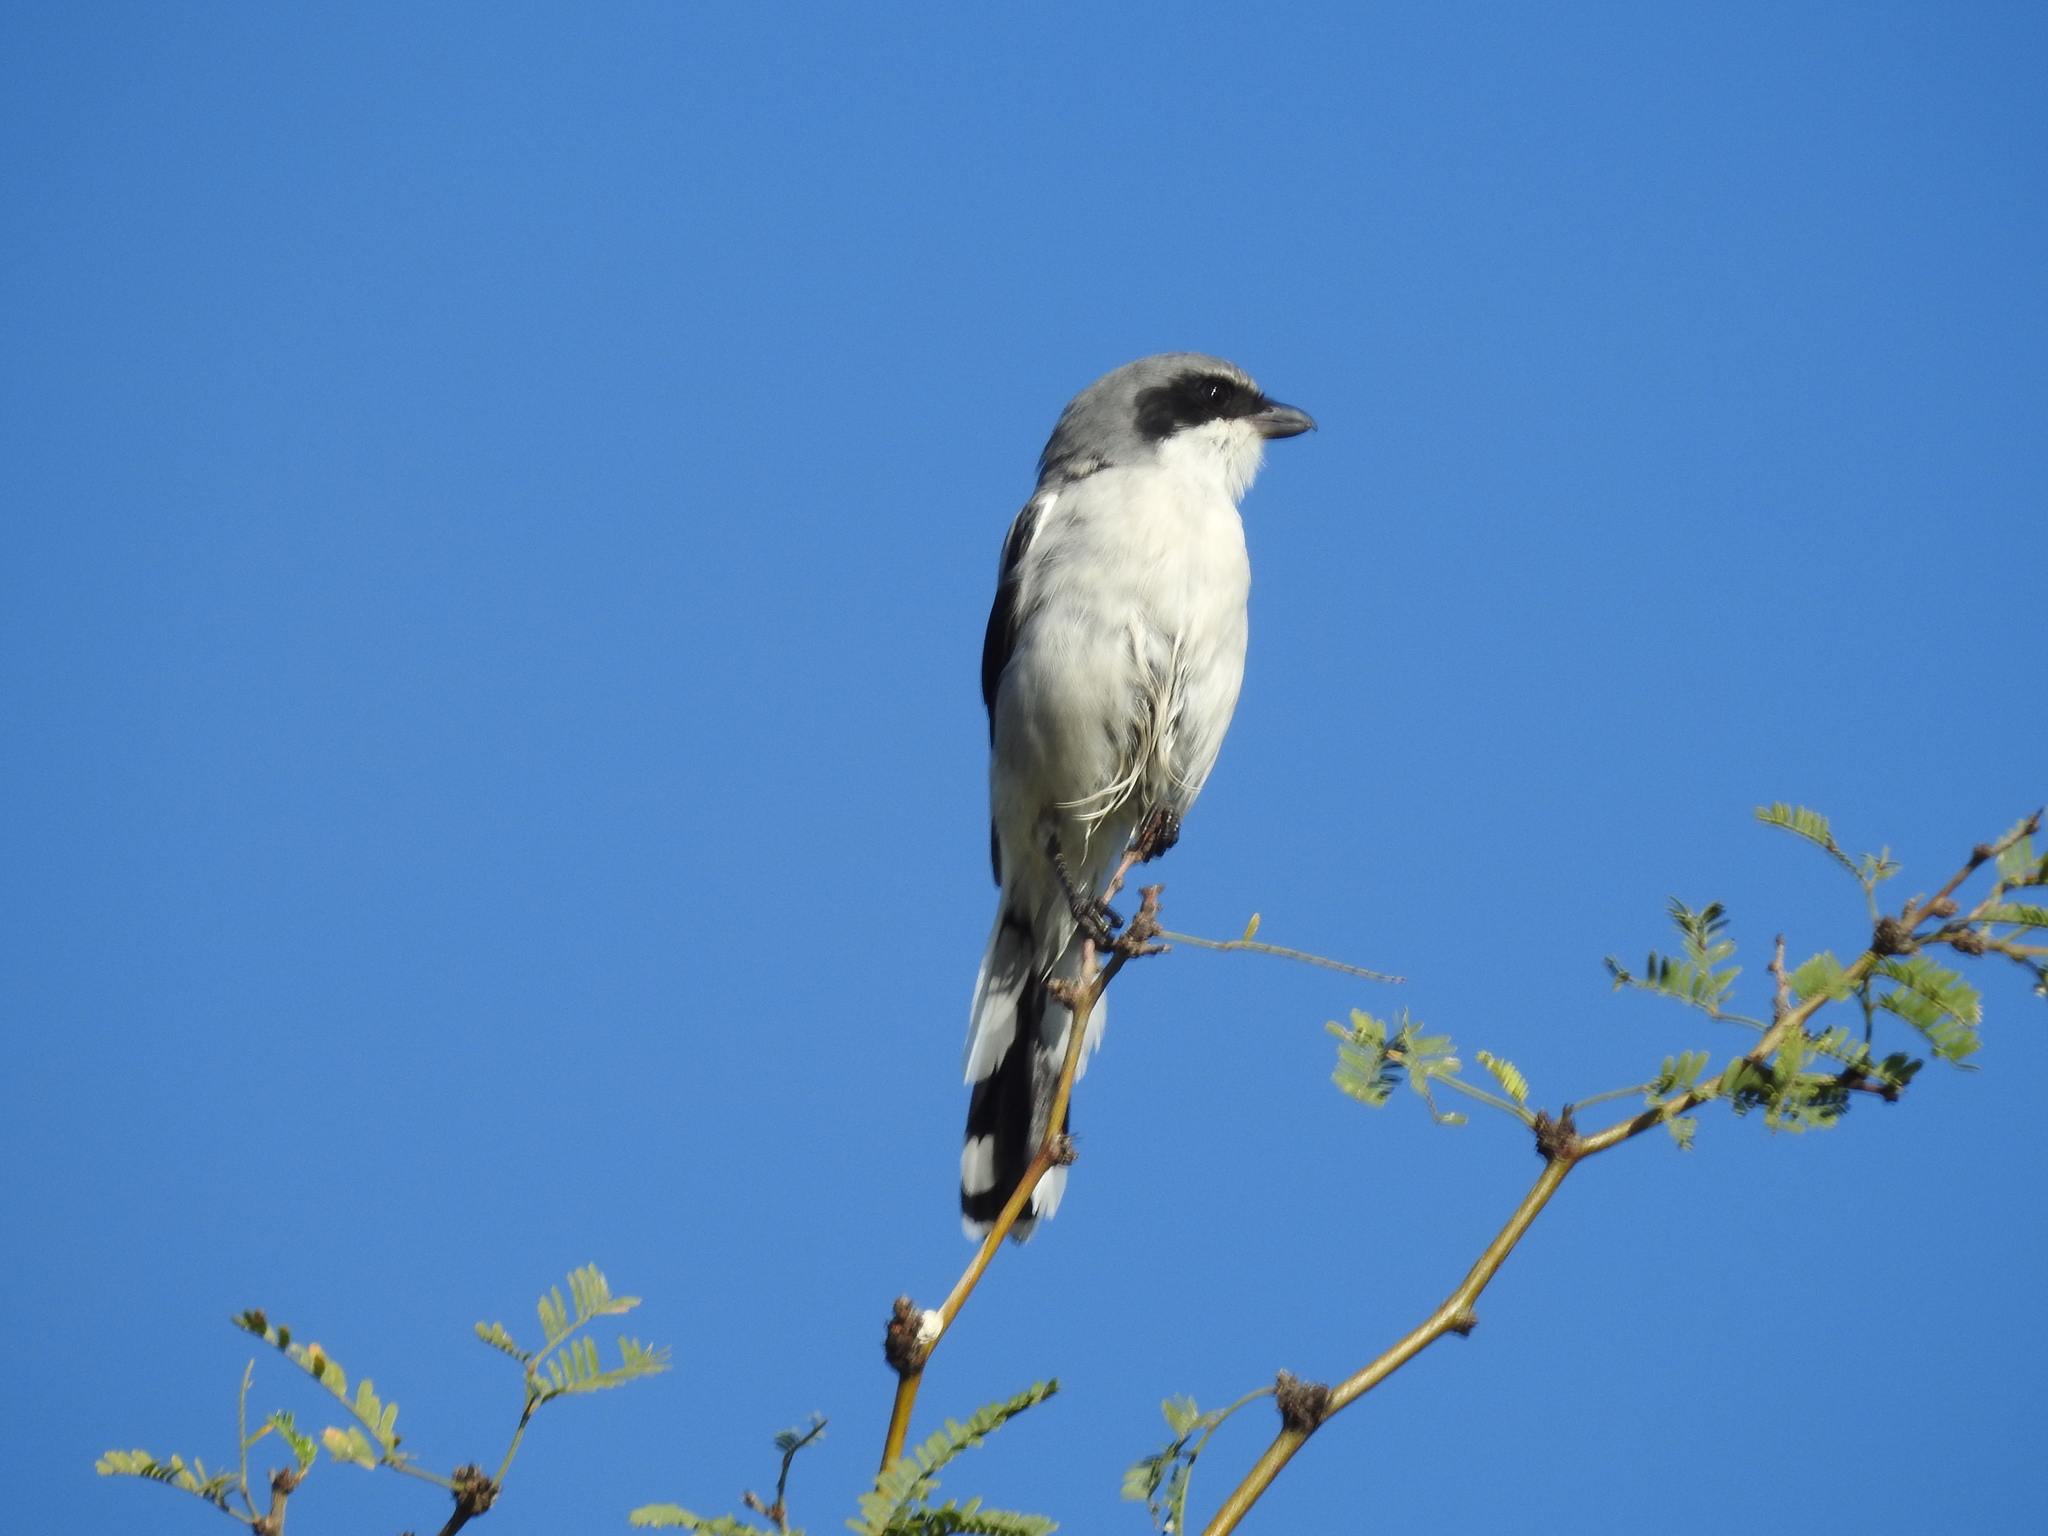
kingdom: Animalia
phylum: Chordata
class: Aves
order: Passeriformes
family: Laniidae
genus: Lanius
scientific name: Lanius ludovicianus
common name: Loggerhead shrike
